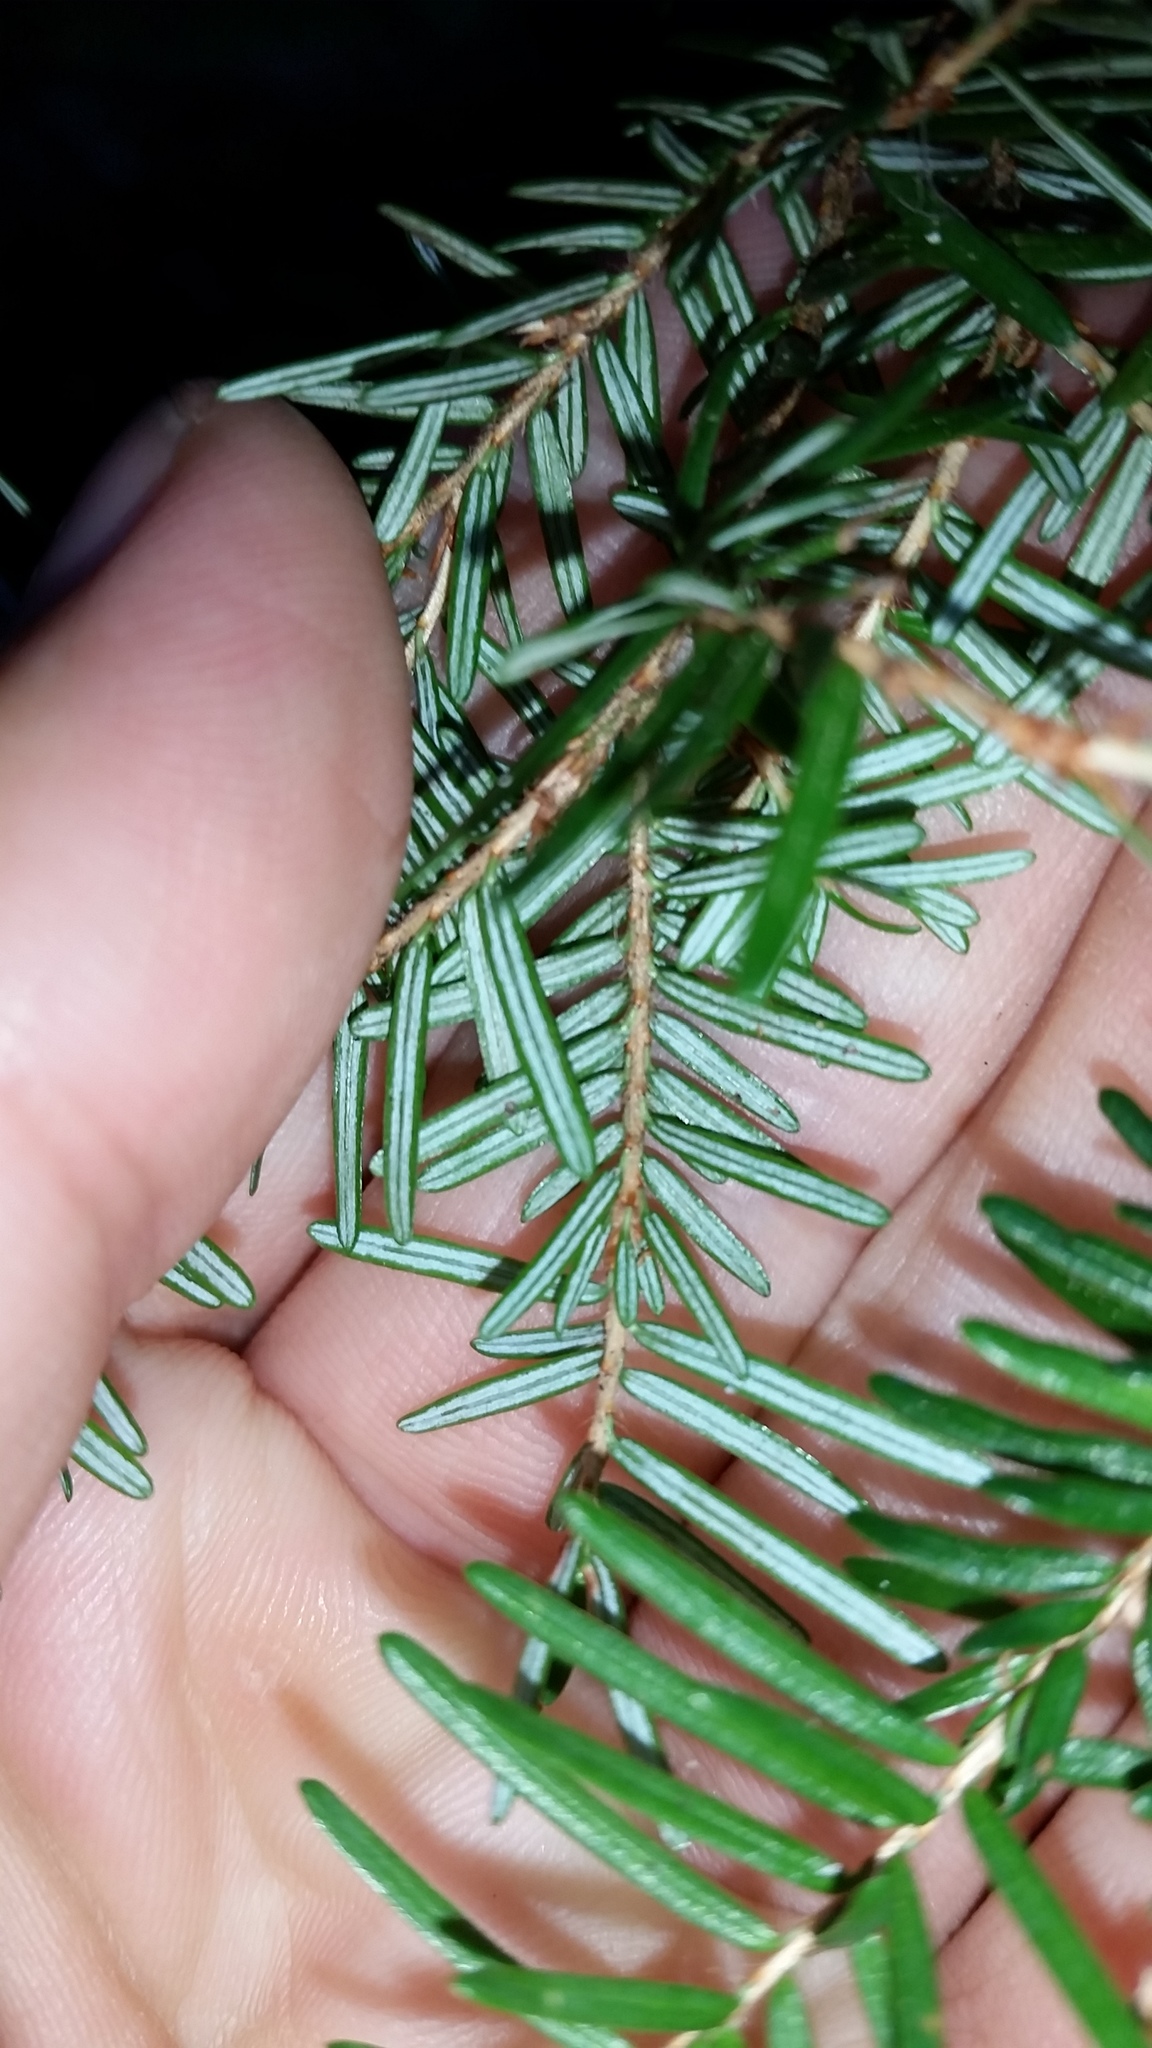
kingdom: Plantae
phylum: Tracheophyta
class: Pinopsida
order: Pinales
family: Pinaceae
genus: Tsuga
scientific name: Tsuga heterophylla
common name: Western hemlock
